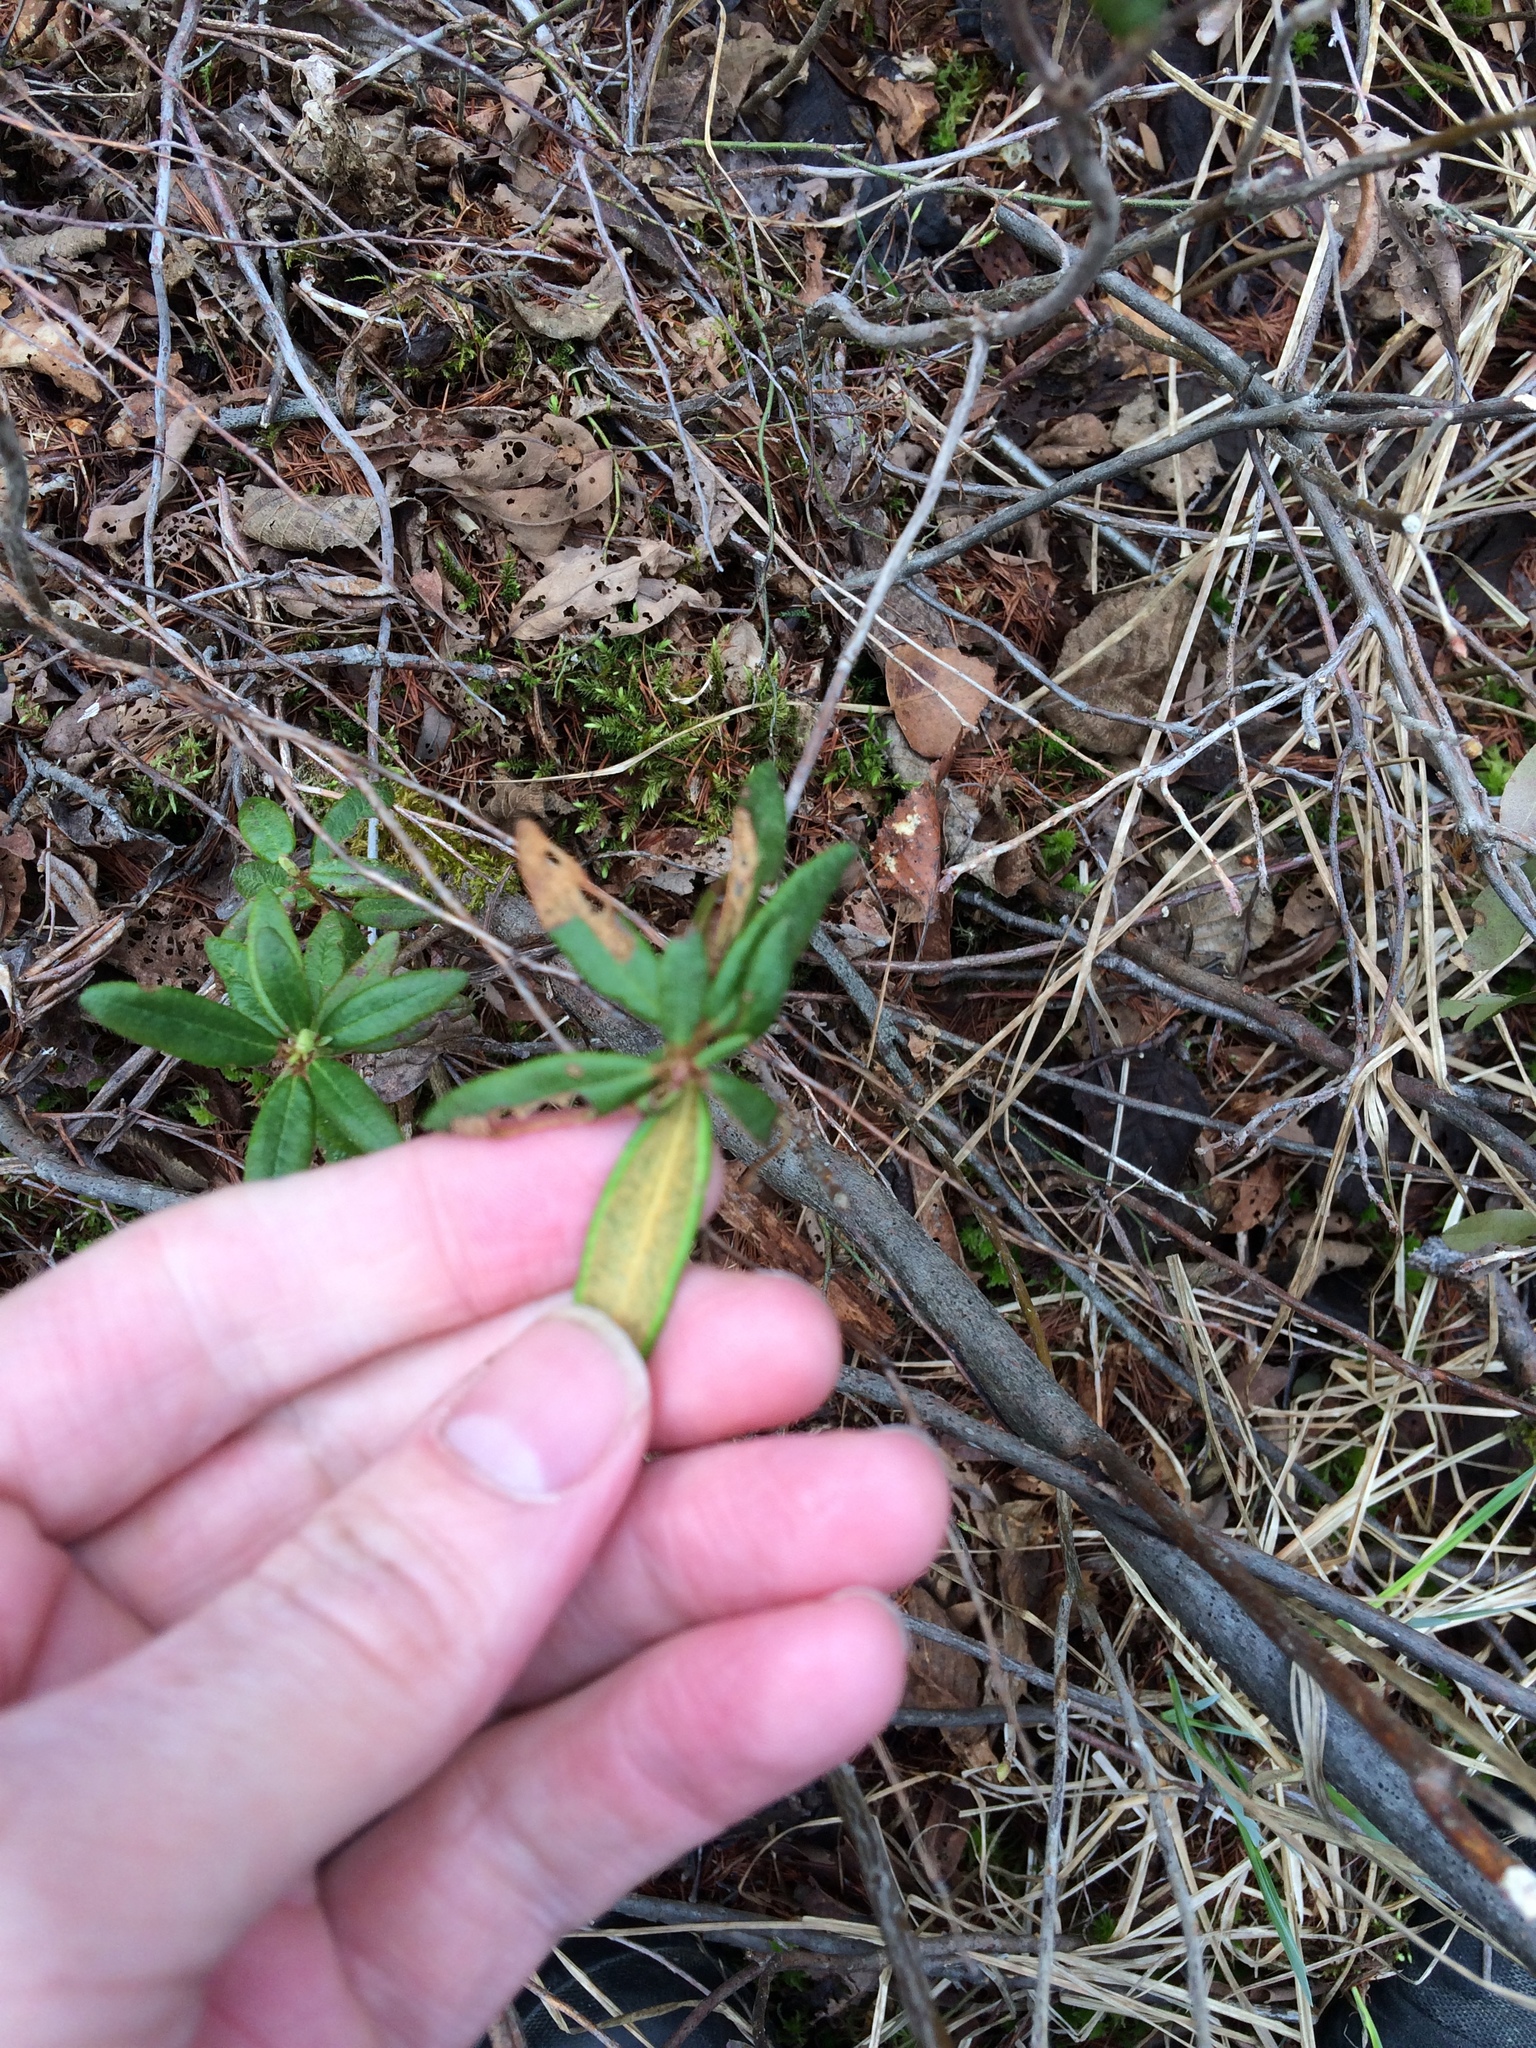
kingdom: Plantae
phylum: Tracheophyta
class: Magnoliopsida
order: Ericales
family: Ericaceae
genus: Rhododendron
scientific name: Rhododendron groenlandicum
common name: Bog labrador tea
